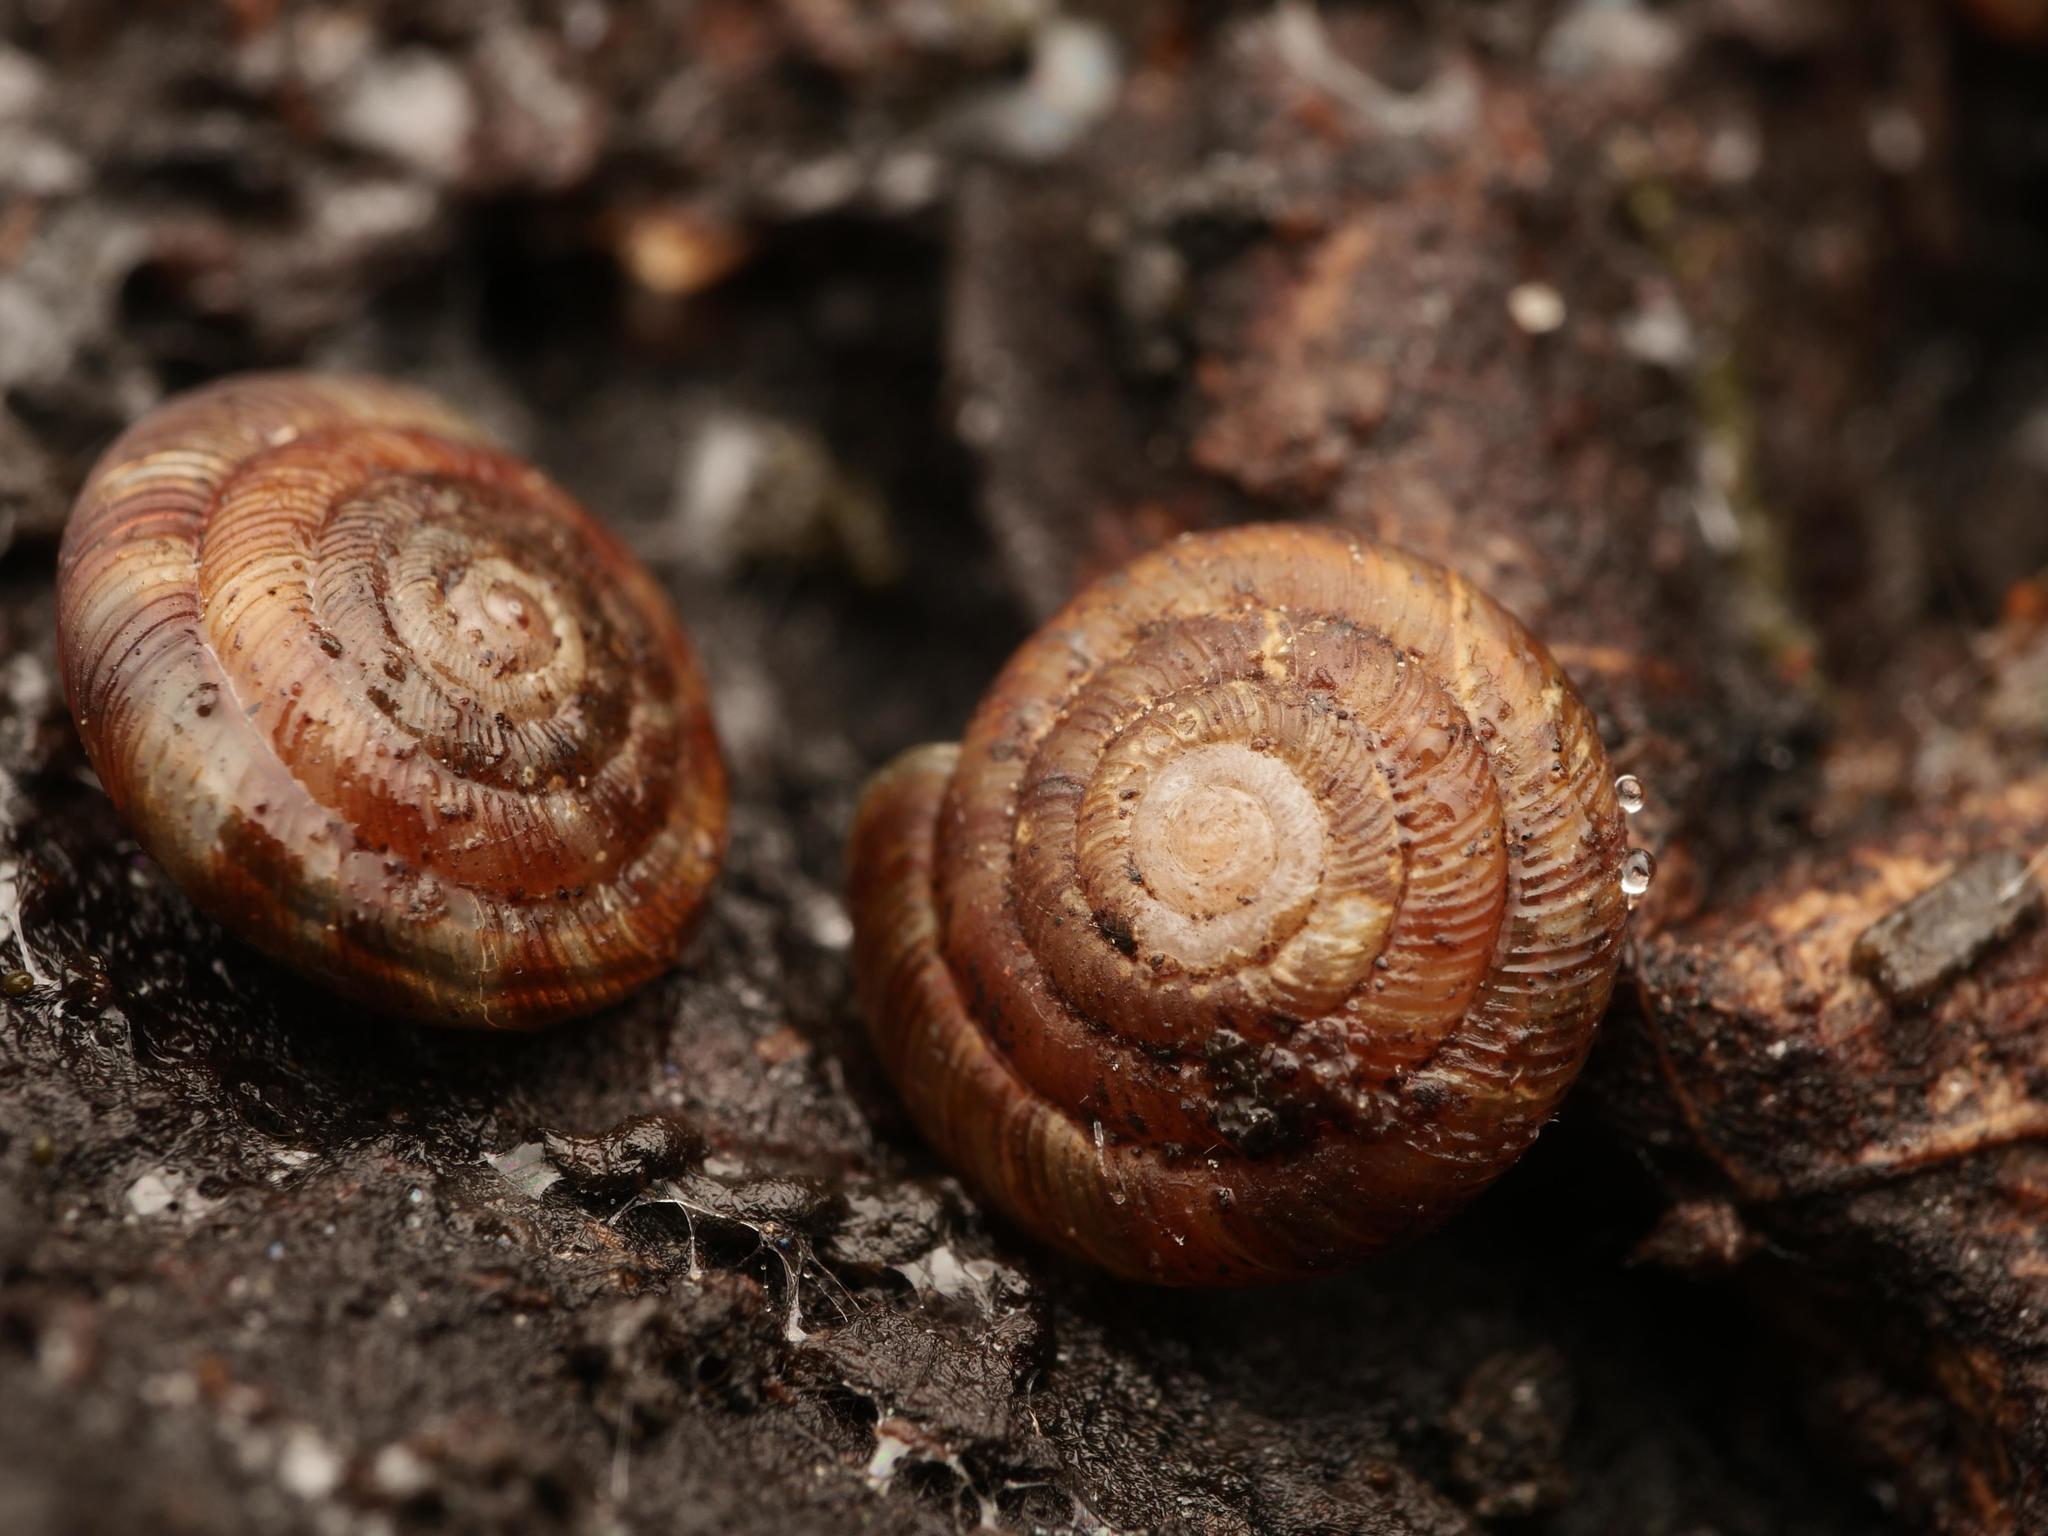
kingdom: Animalia
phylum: Mollusca
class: Gastropoda
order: Stylommatophora
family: Discidae
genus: Discus
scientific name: Discus rotundatus
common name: Rounded snail
